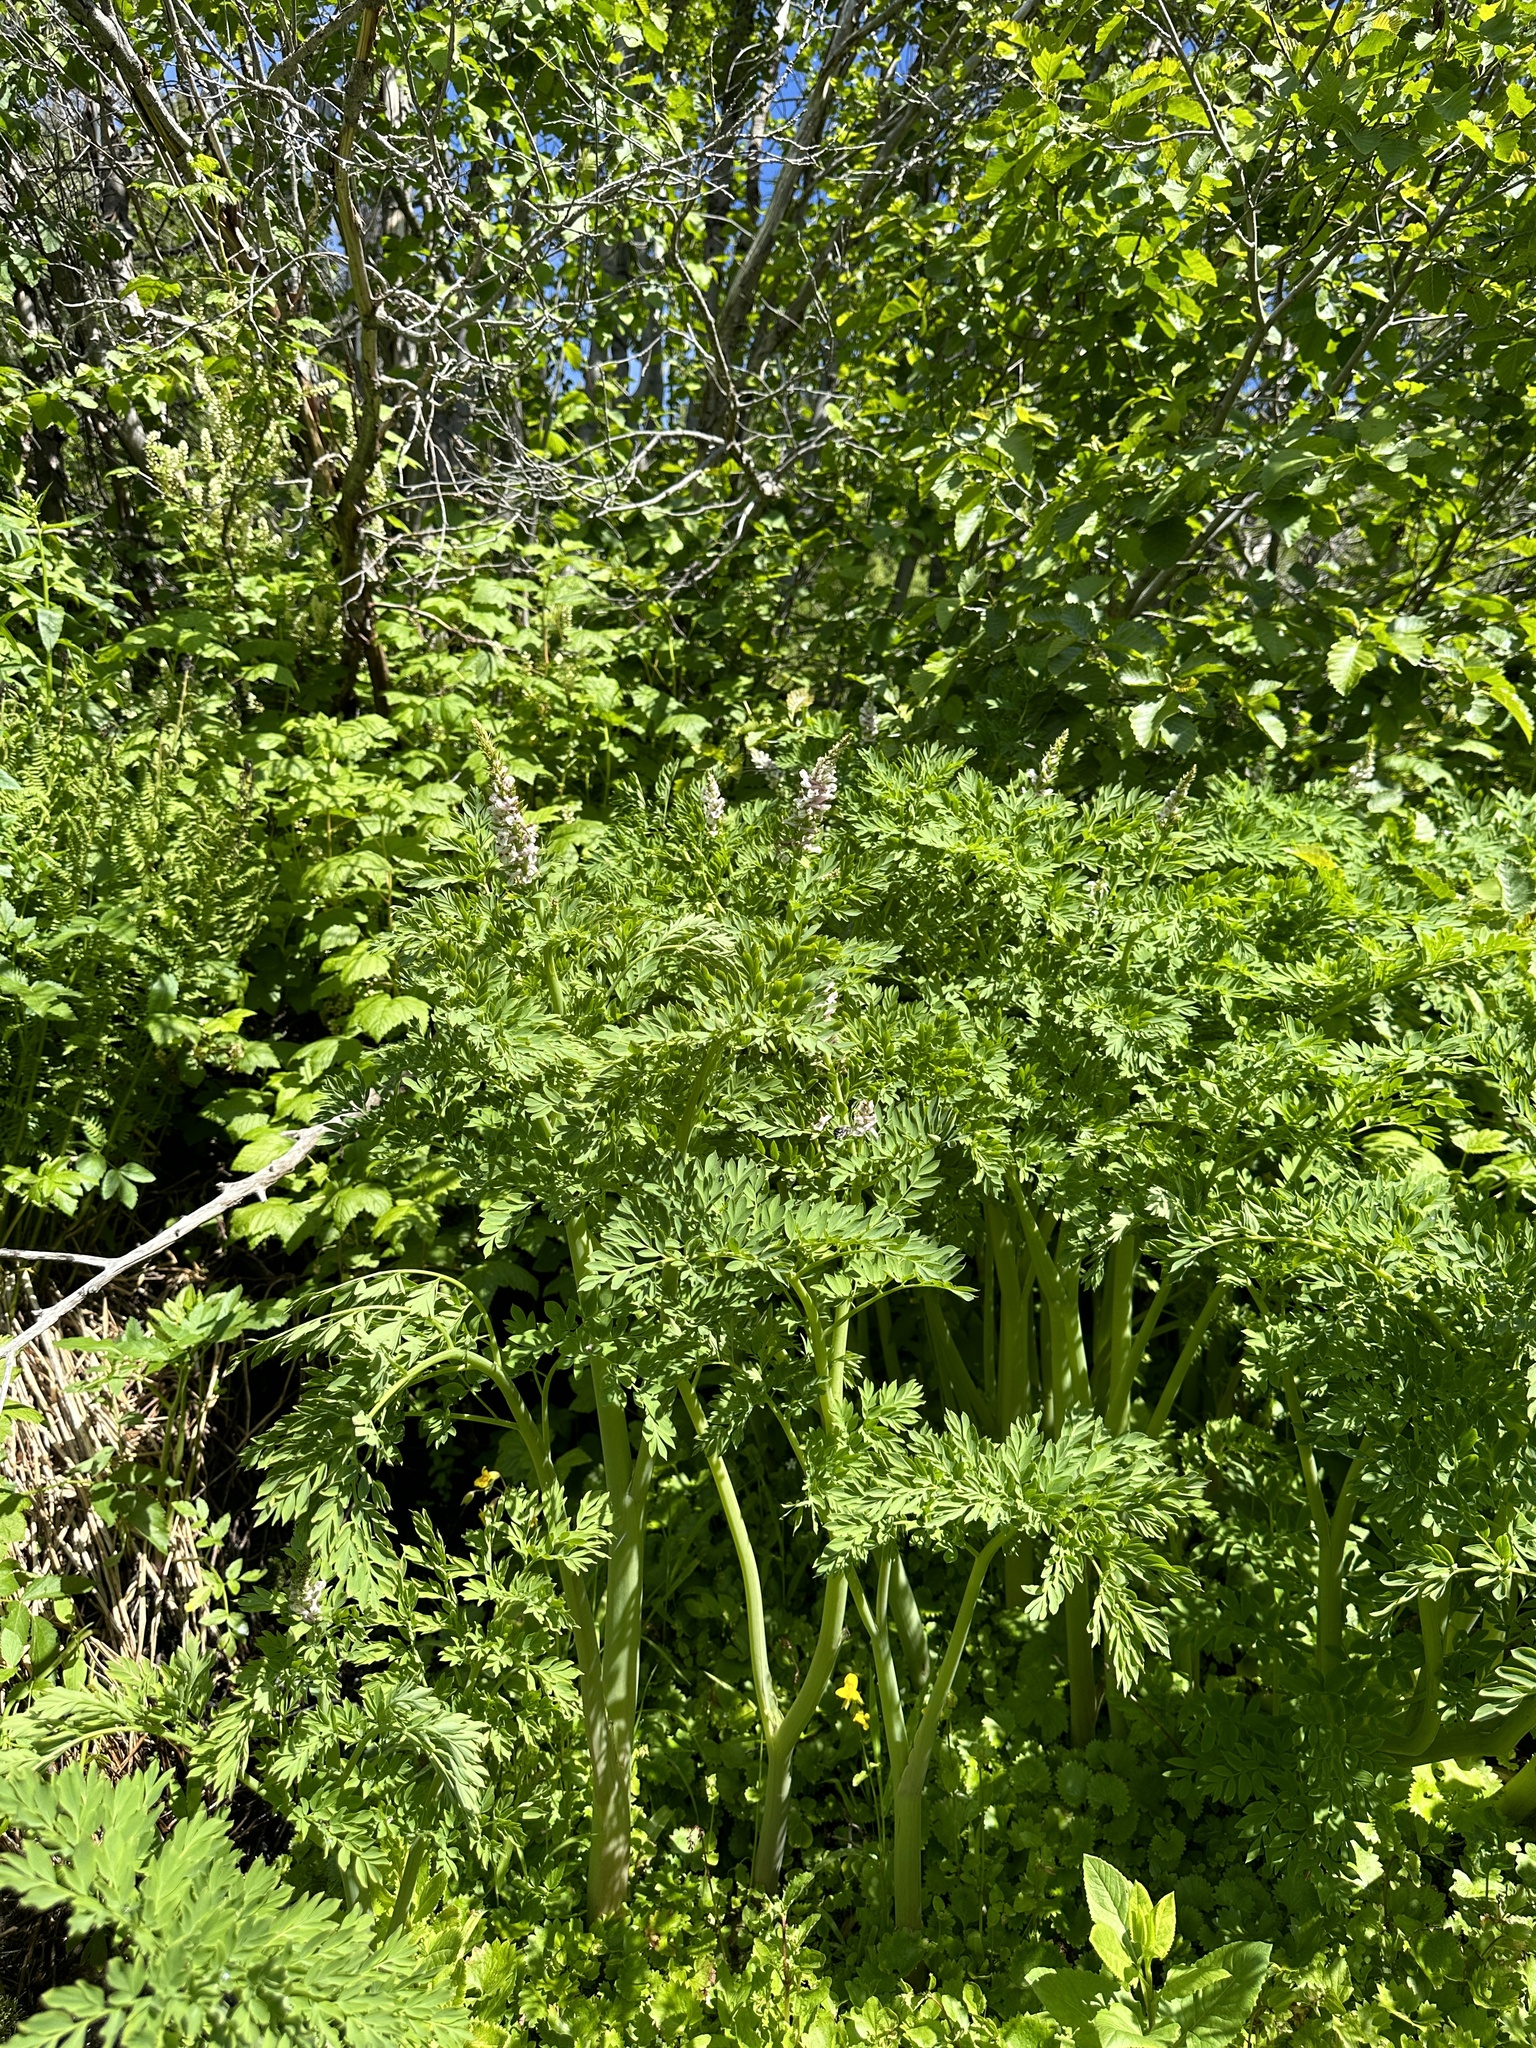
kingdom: Plantae
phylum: Tracheophyta
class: Magnoliopsida
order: Ranunculales
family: Papaveraceae
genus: Corydalis
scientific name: Corydalis caseana
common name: Fitweed
